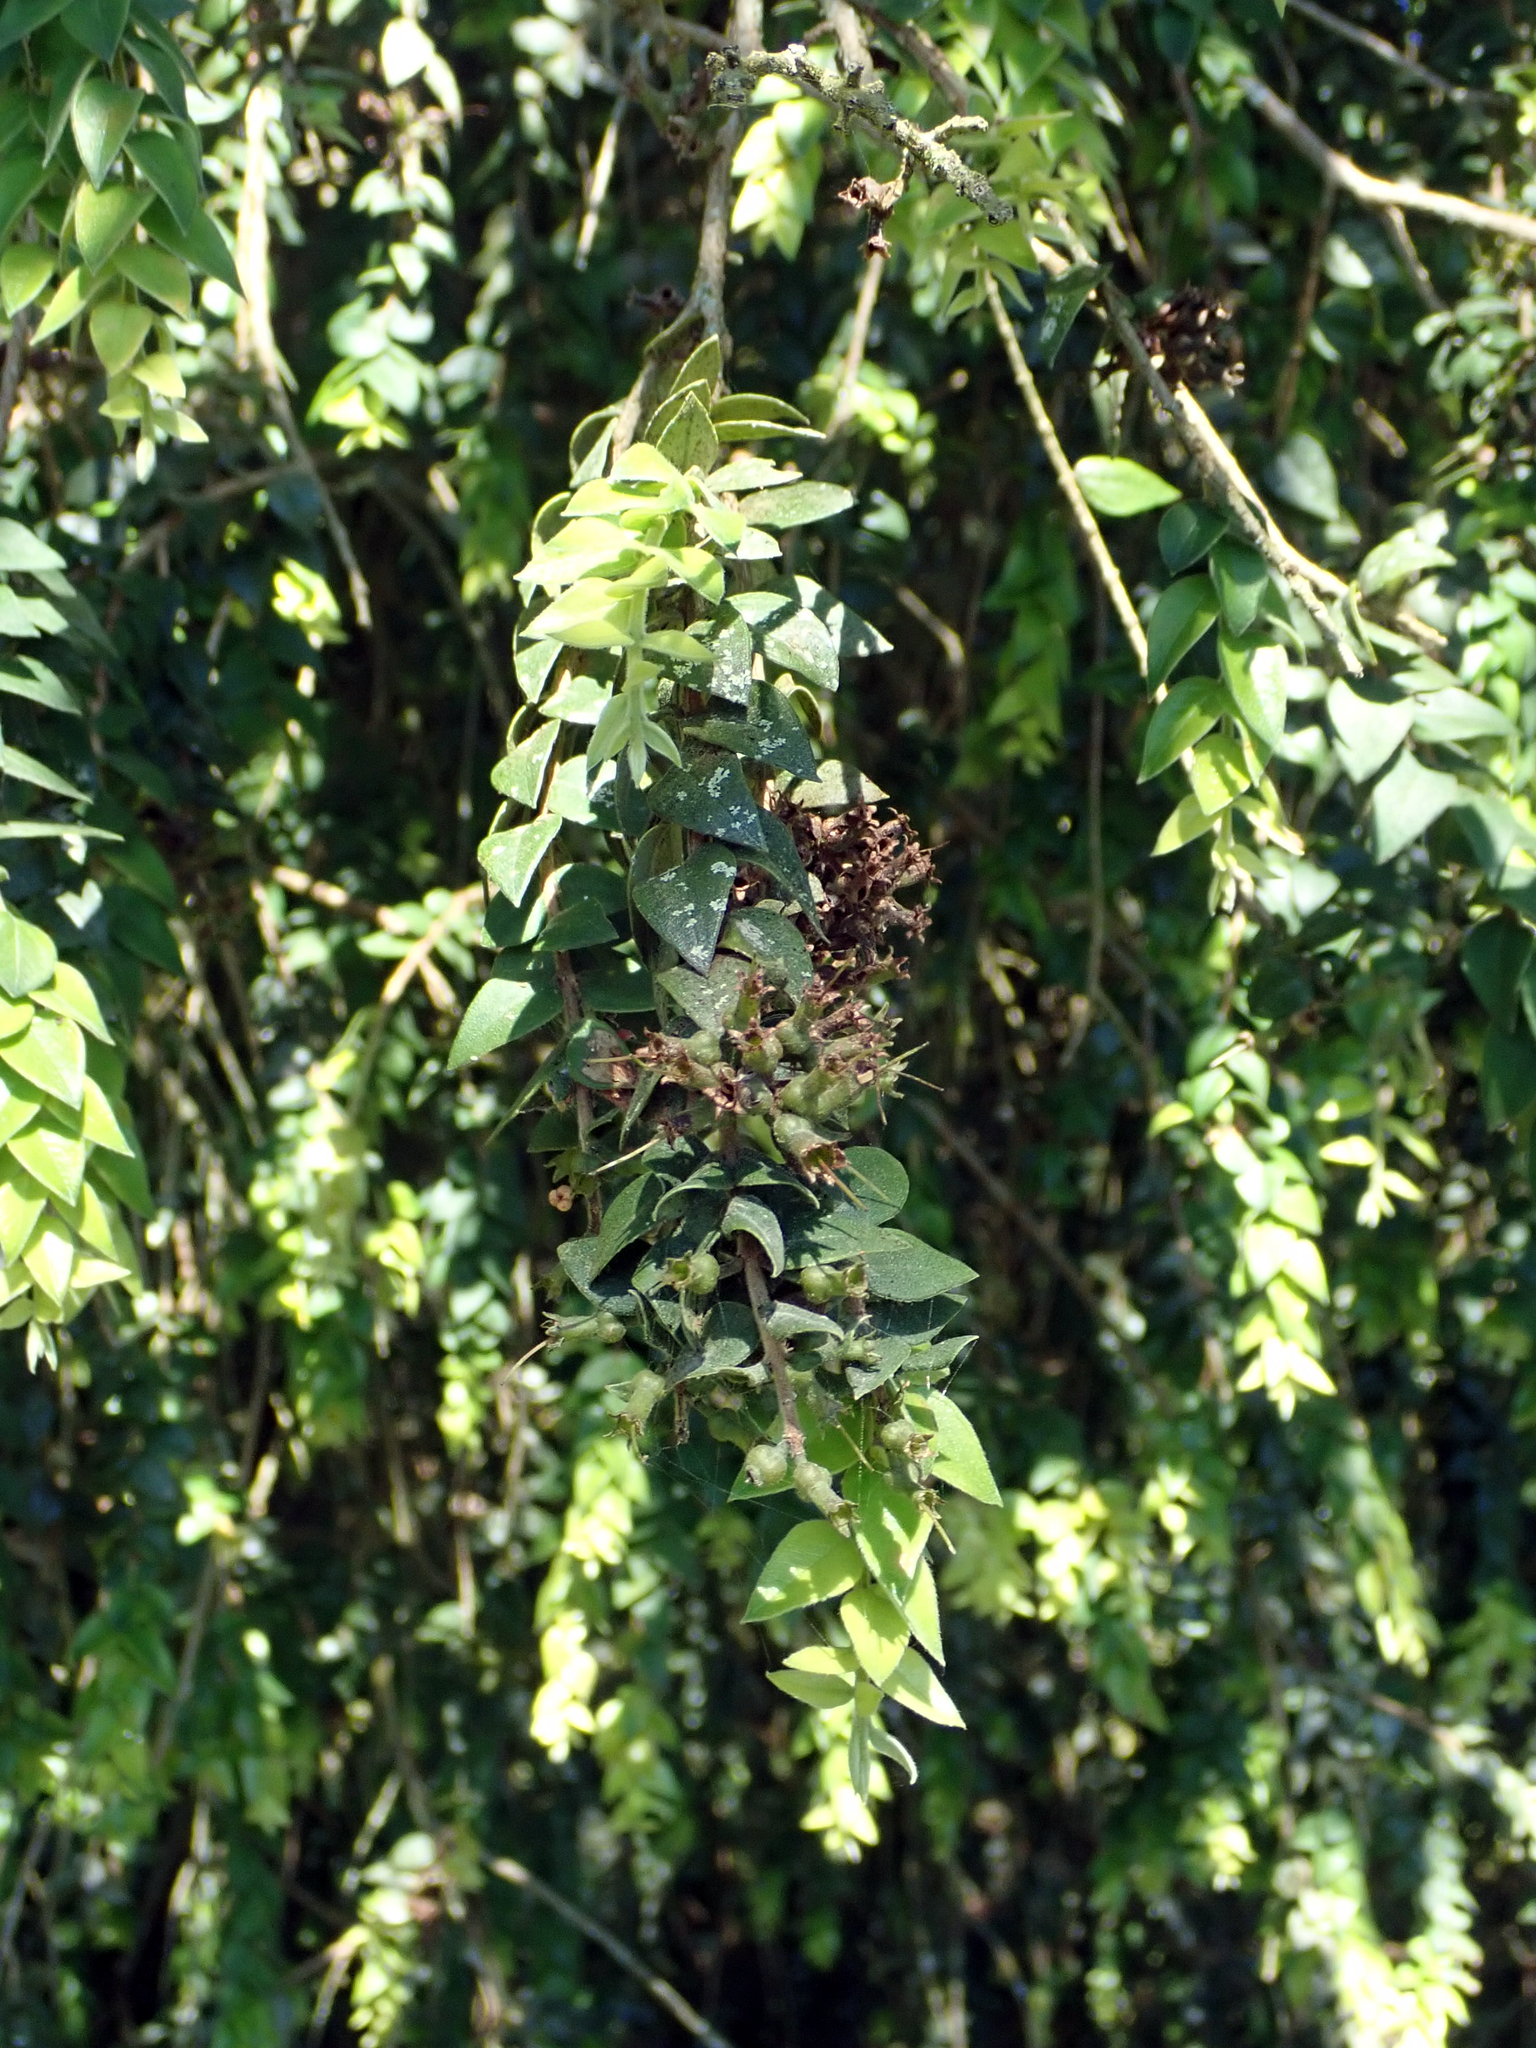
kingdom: Plantae
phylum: Tracheophyta
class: Magnoliopsida
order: Myrtales
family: Myrtaceae
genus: Metrosideros
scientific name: Metrosideros colensoi
